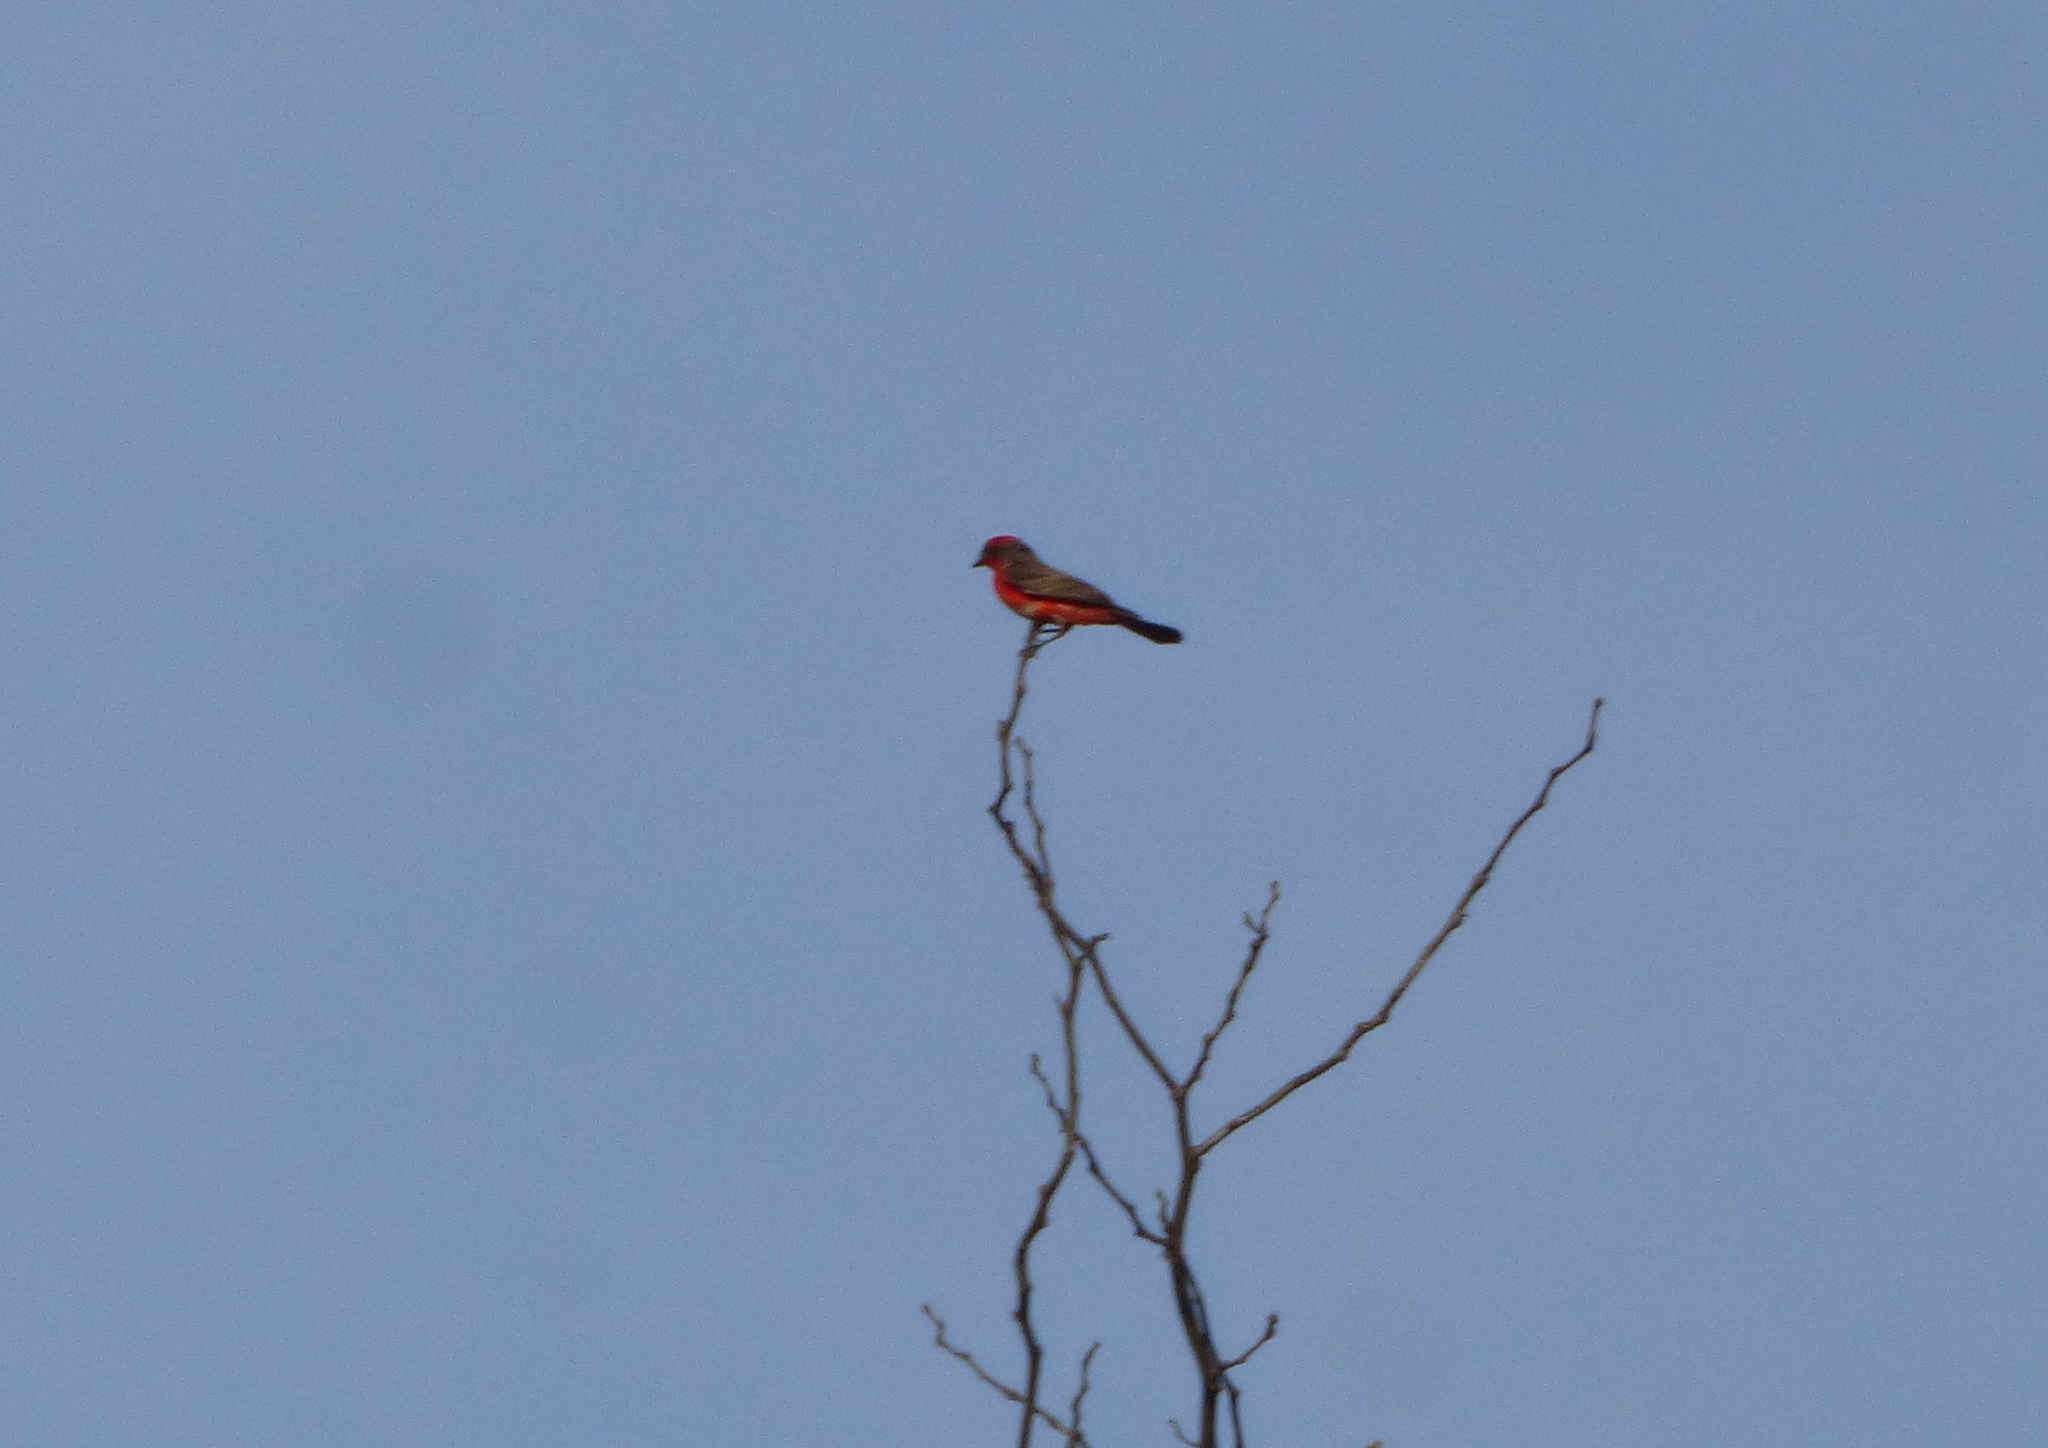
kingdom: Animalia
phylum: Chordata
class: Aves
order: Passeriformes
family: Tyrannidae
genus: Pyrocephalus
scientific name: Pyrocephalus rubinus
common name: Vermilion flycatcher
